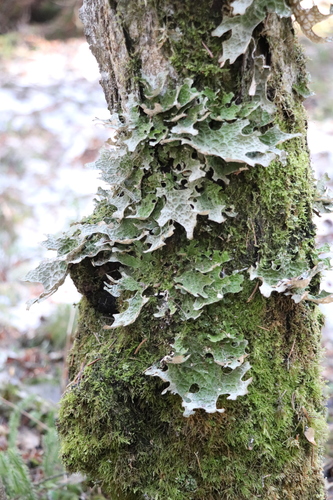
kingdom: Fungi
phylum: Ascomycota
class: Lecanoromycetes
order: Peltigerales
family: Lobariaceae
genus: Lobaria
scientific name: Lobaria pulmonaria
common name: Lungwort
